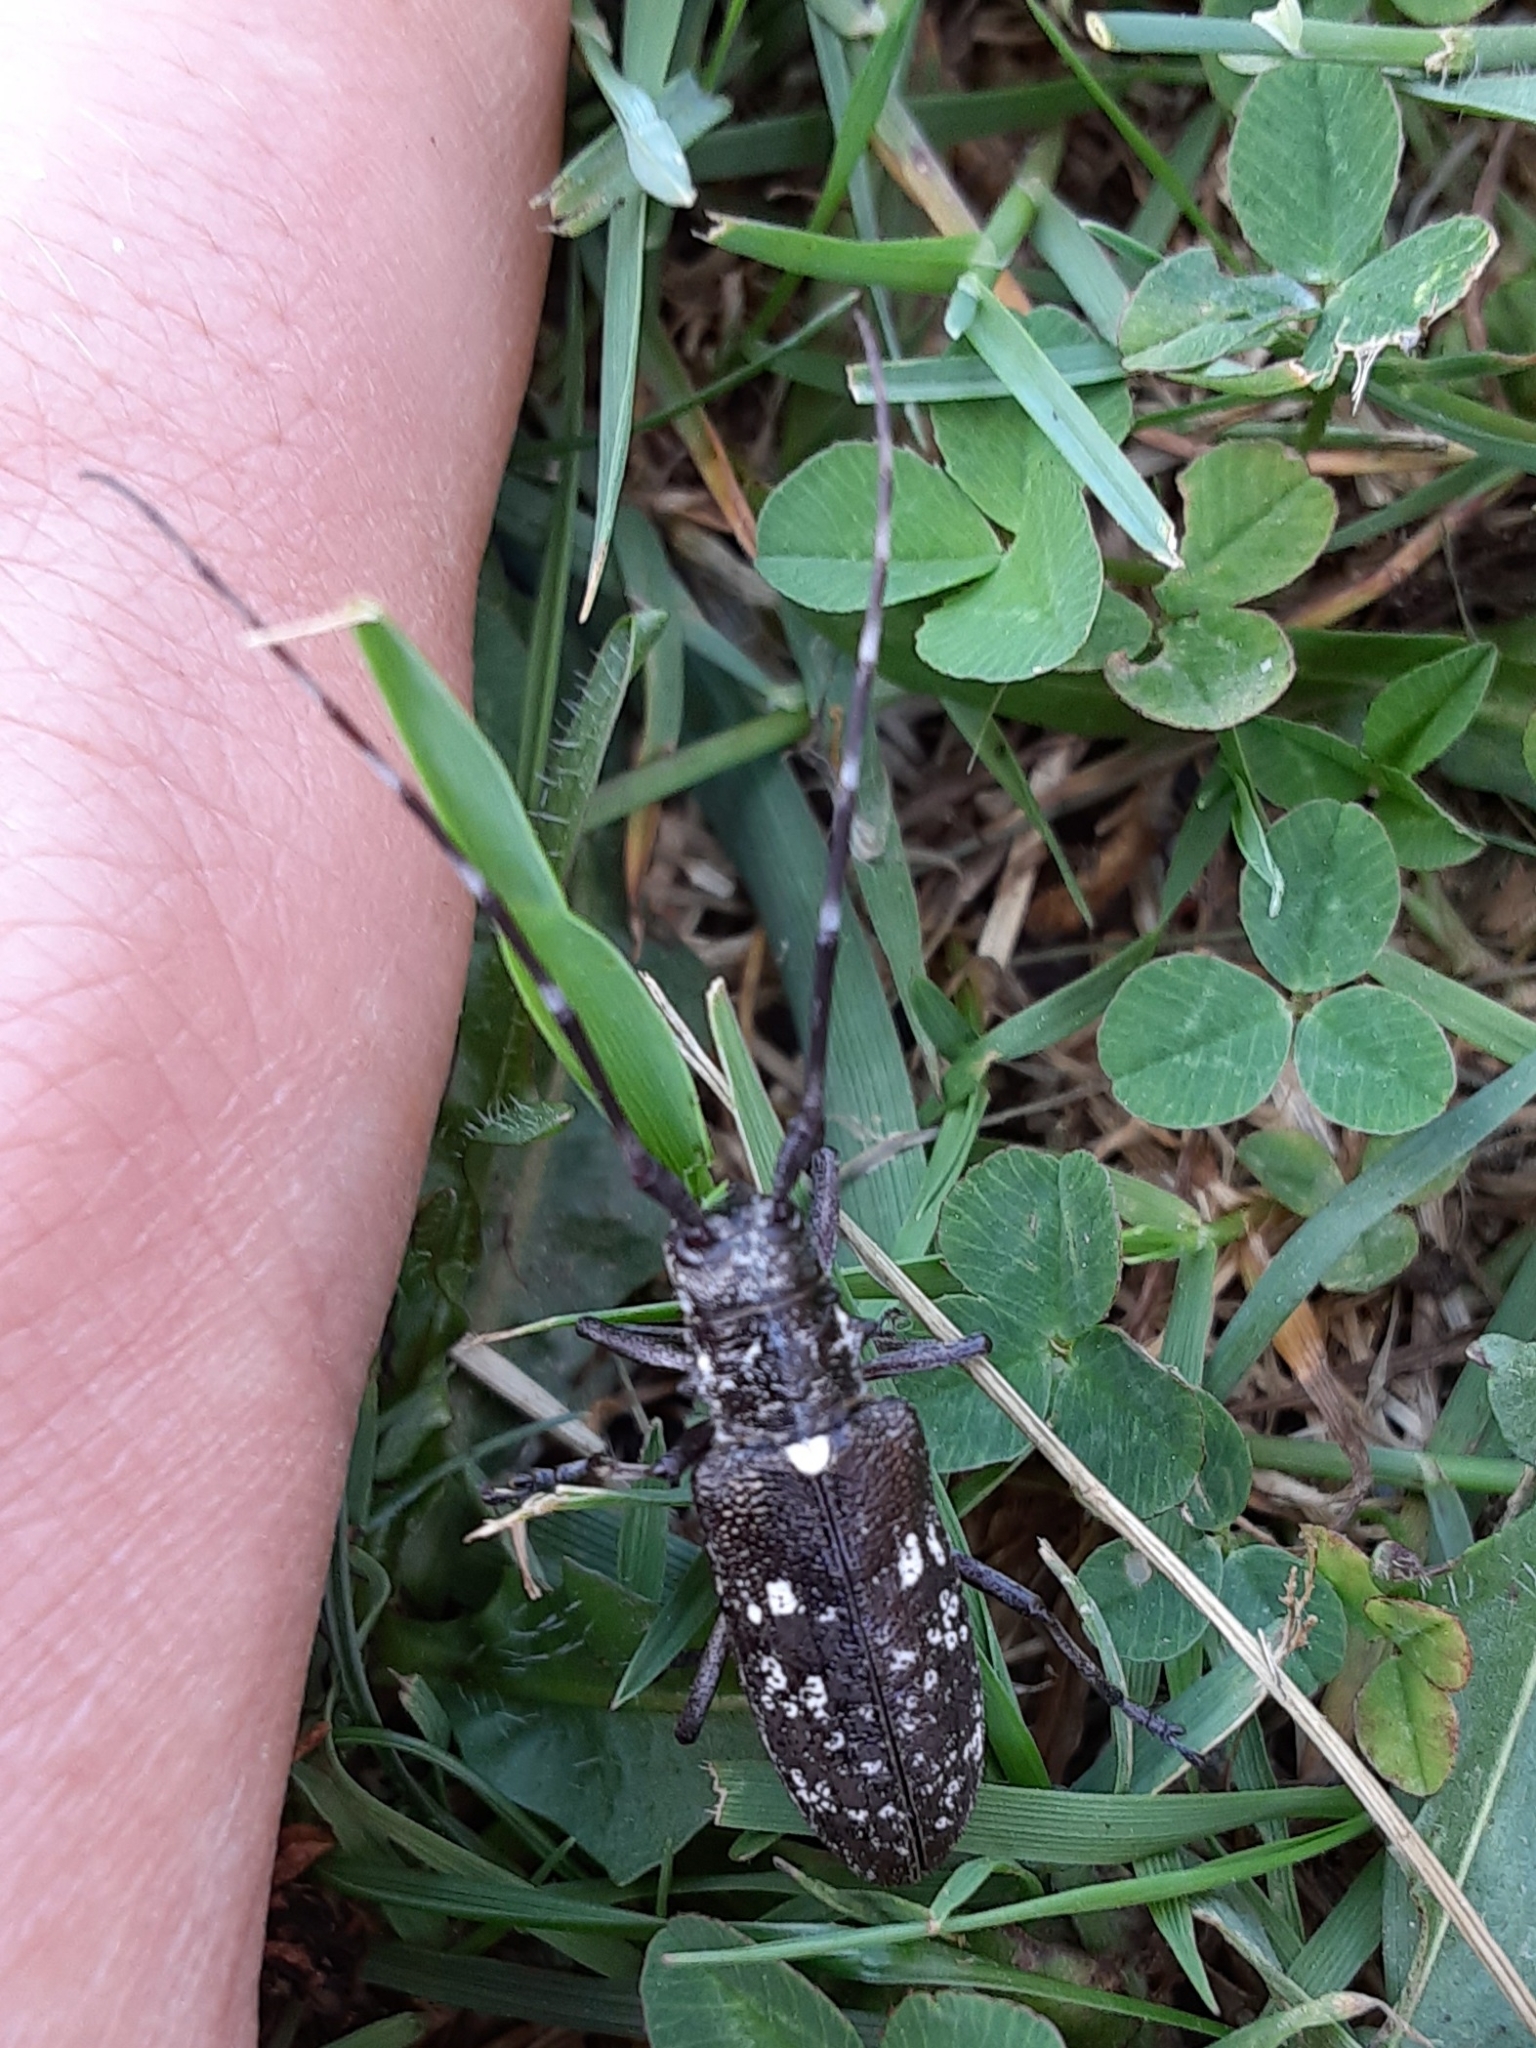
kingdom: Animalia
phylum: Arthropoda
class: Insecta
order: Coleoptera
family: Cerambycidae
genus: Monochamus
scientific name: Monochamus scutellatus
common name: White-spotted sawyer beetle
